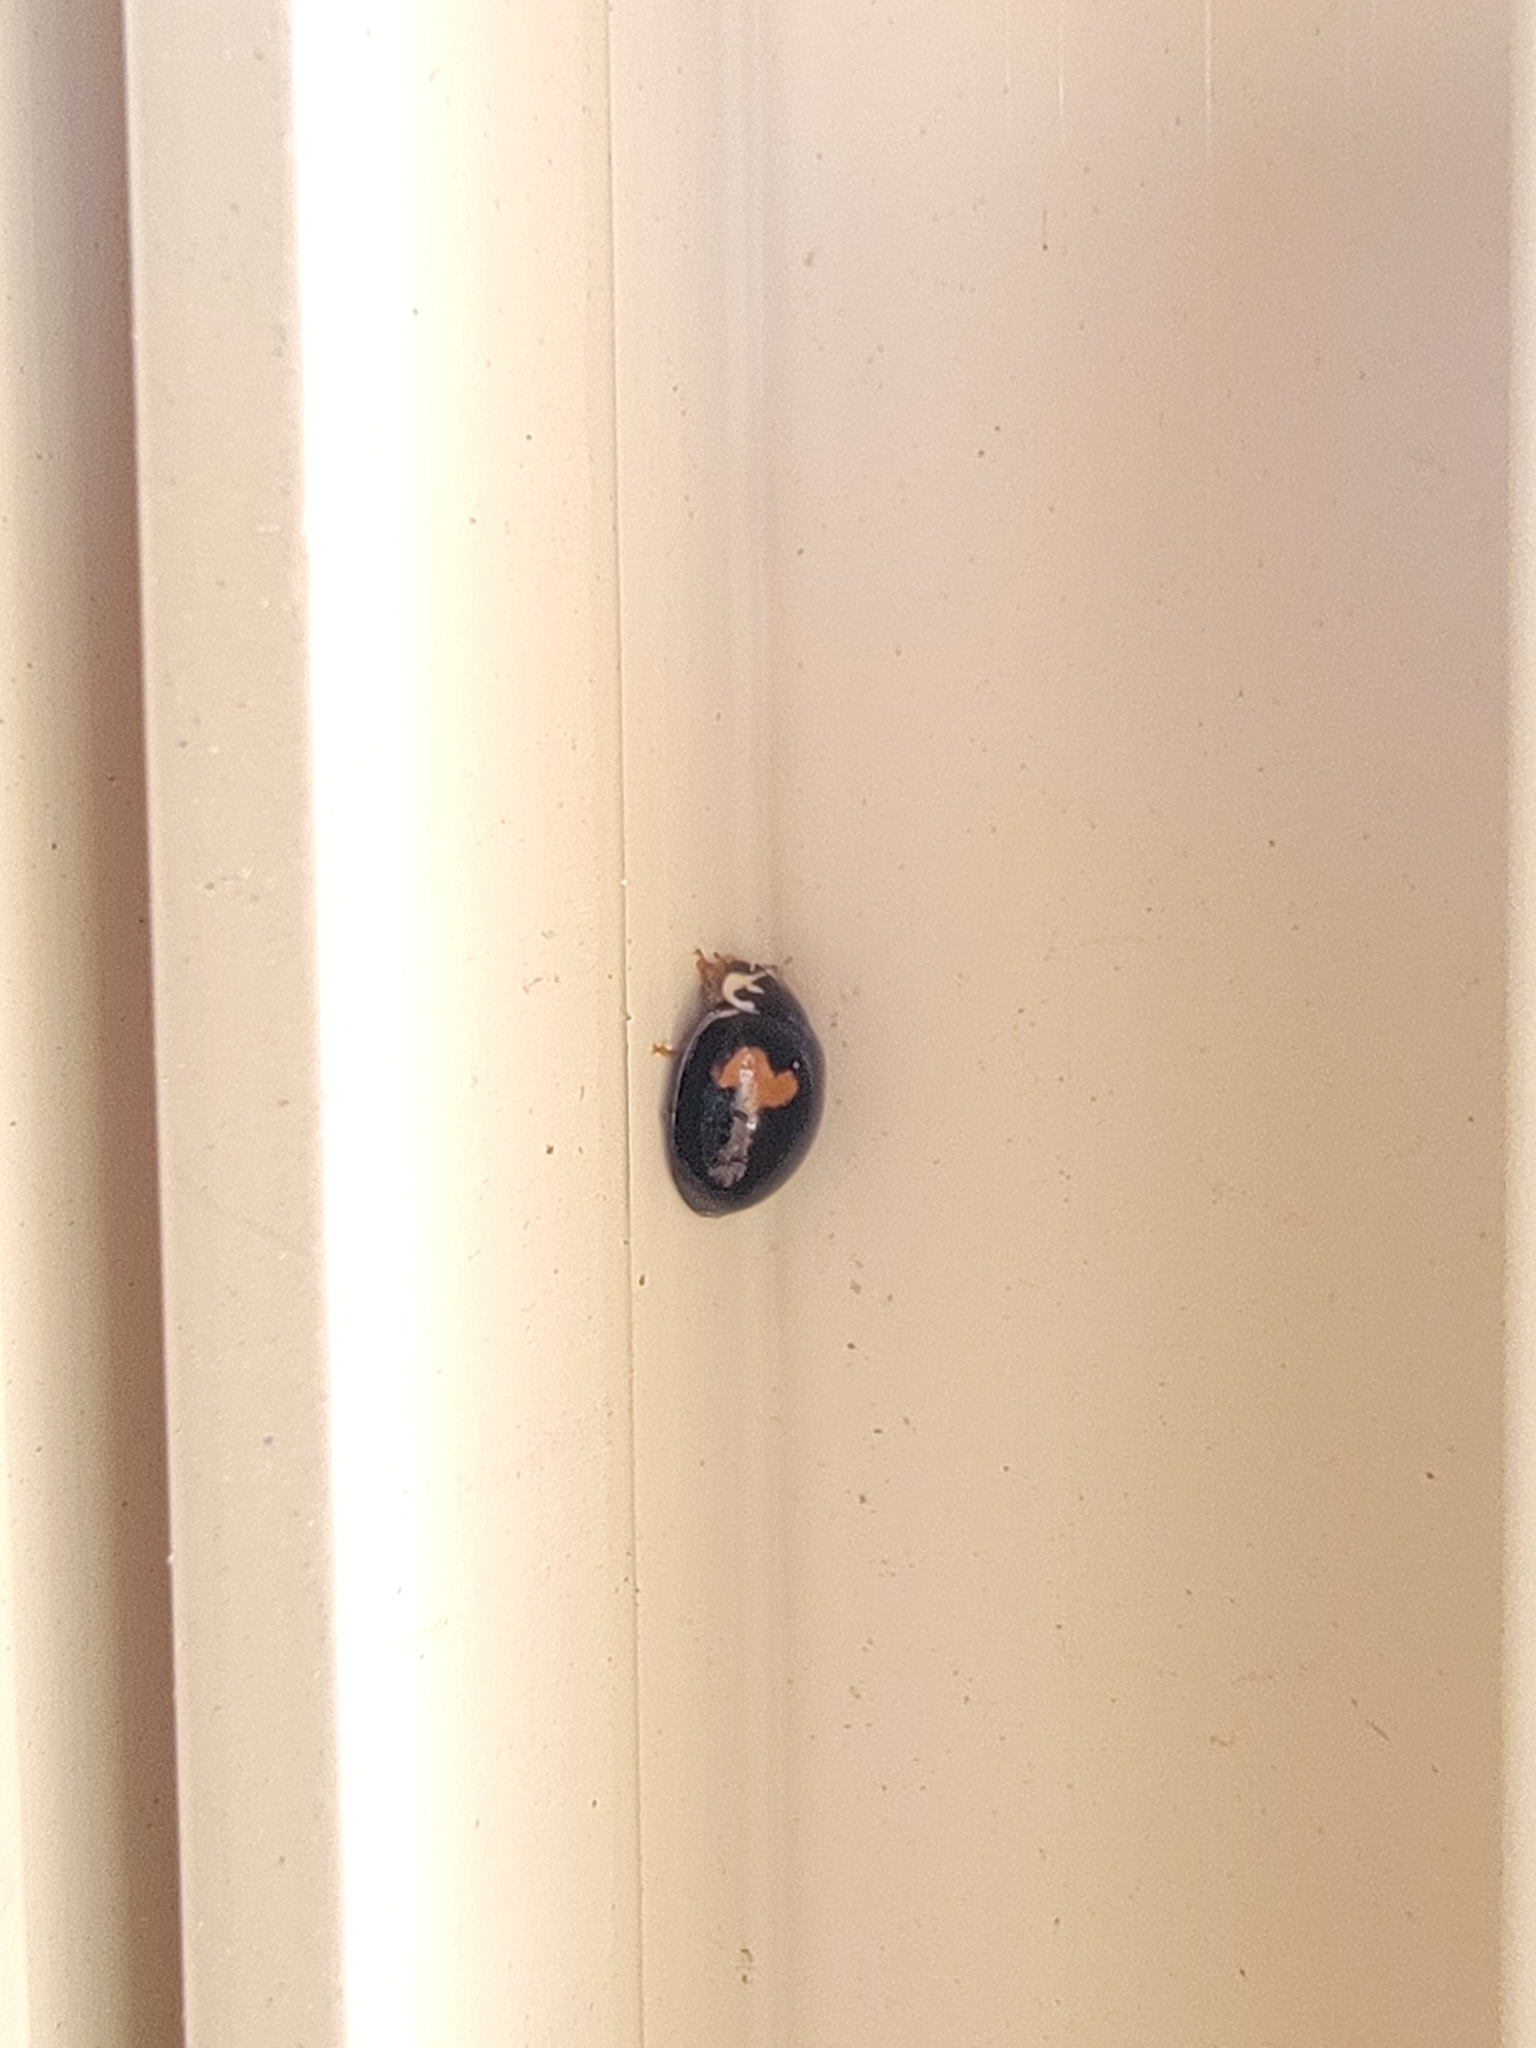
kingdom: Animalia
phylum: Arthropoda
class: Insecta
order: Coleoptera
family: Coccinellidae
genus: Olla
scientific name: Olla v-nigrum
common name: Ashy gray lady beetle
